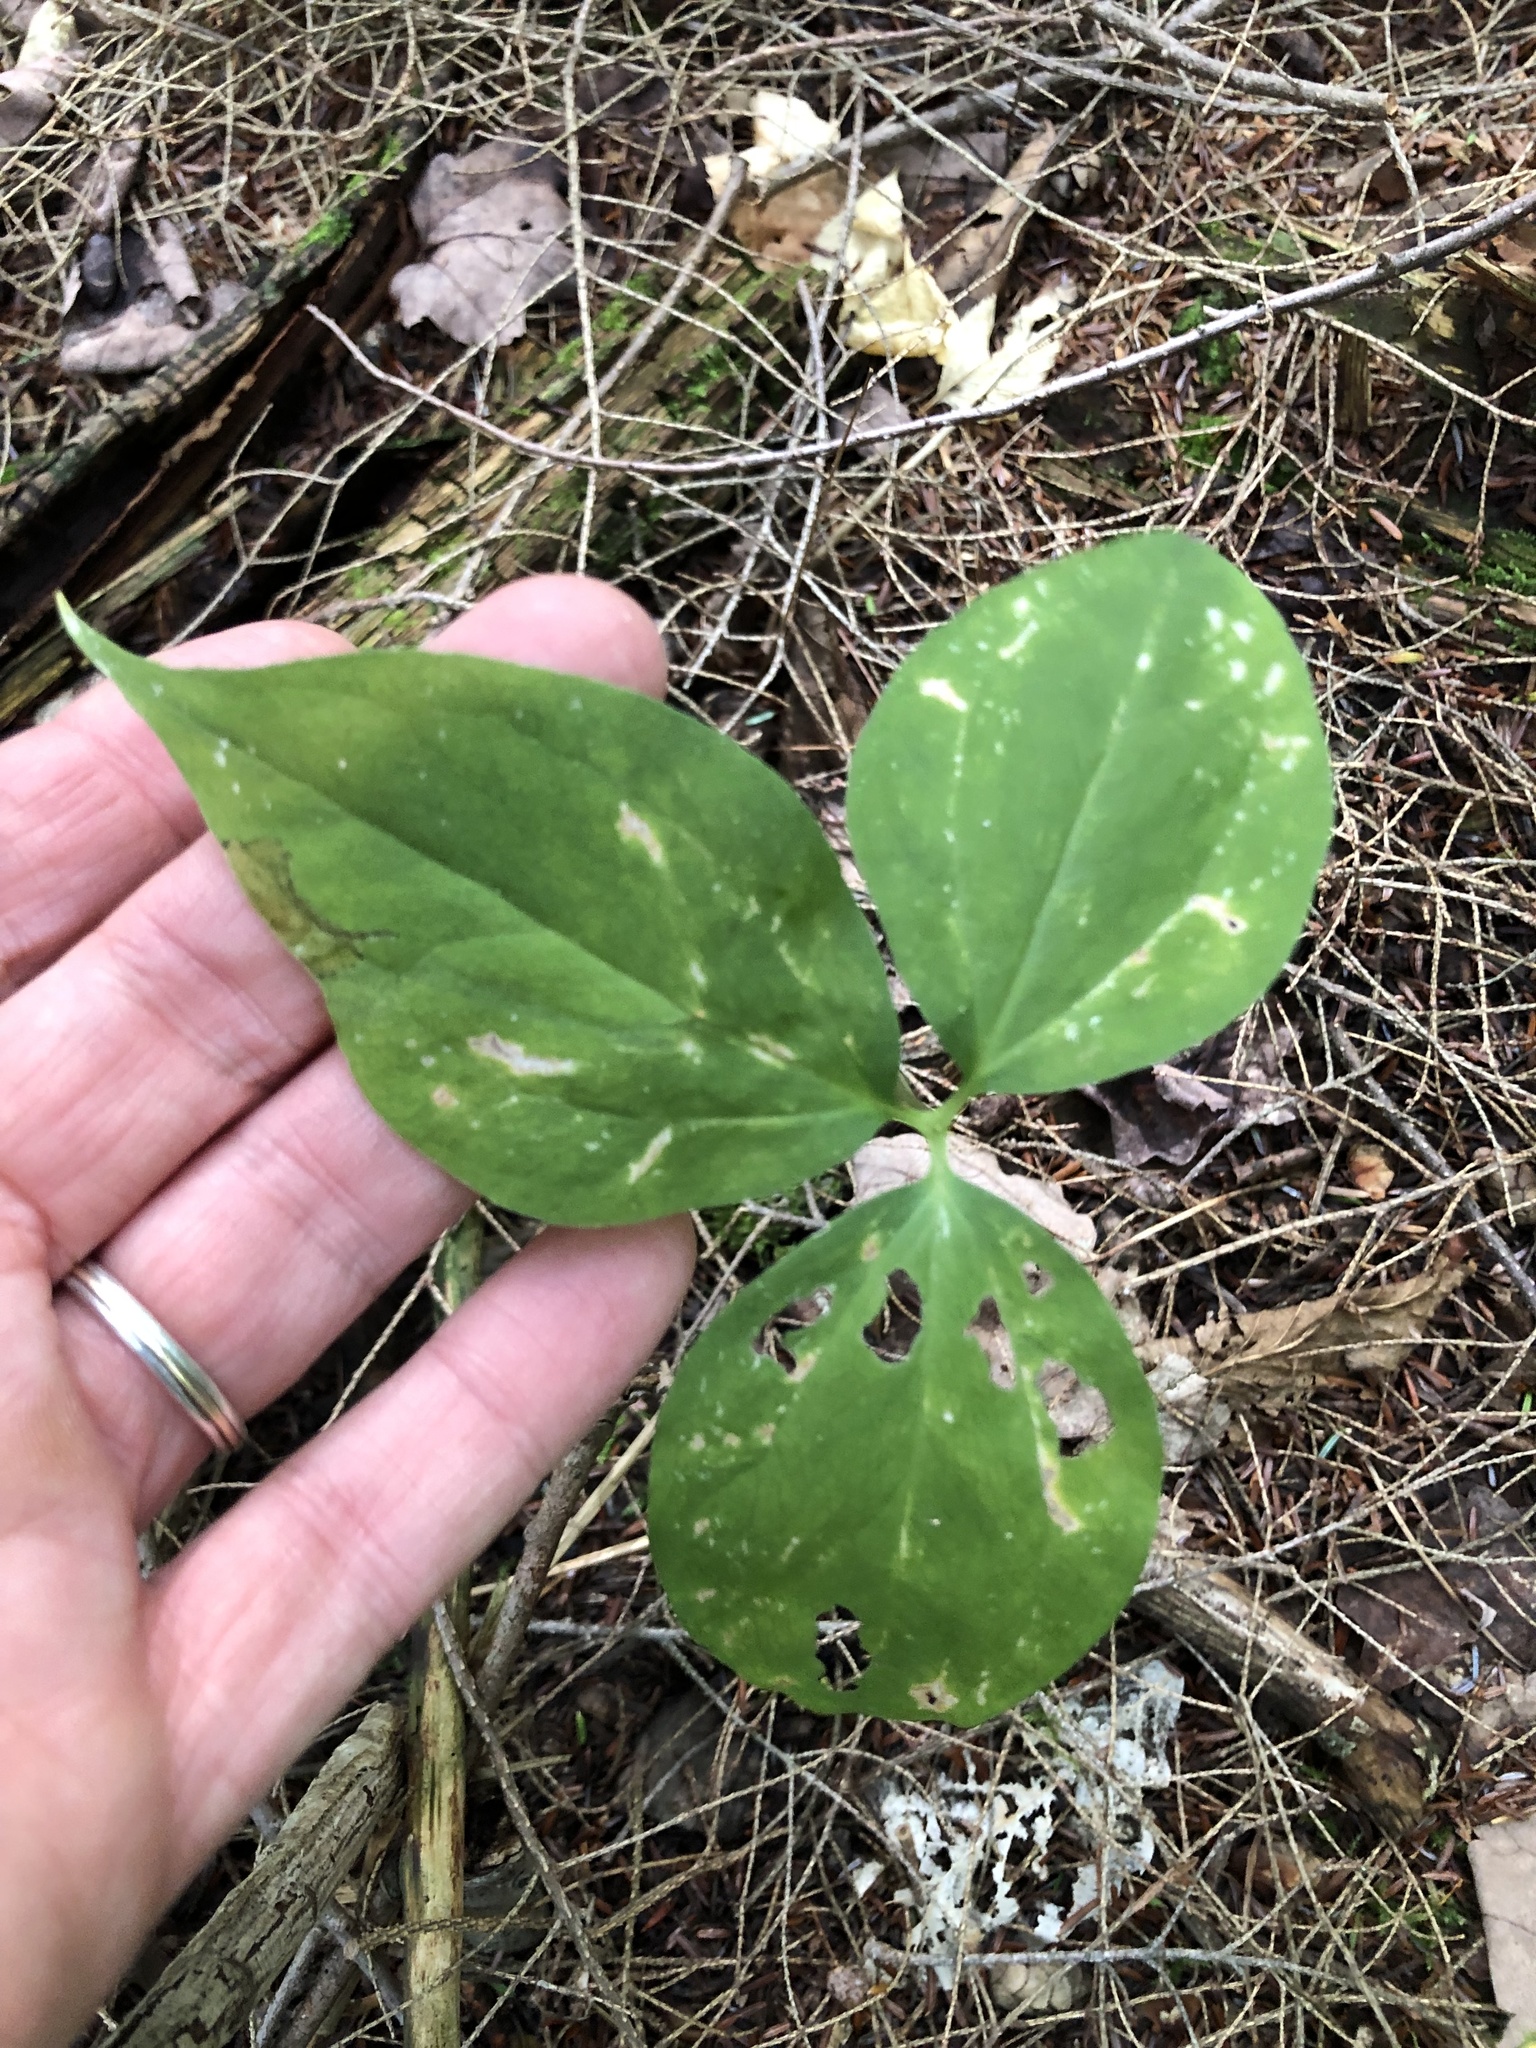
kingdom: Plantae
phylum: Tracheophyta
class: Liliopsida
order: Liliales
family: Melanthiaceae
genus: Trillium
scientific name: Trillium undulatum
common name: Paint trillium
